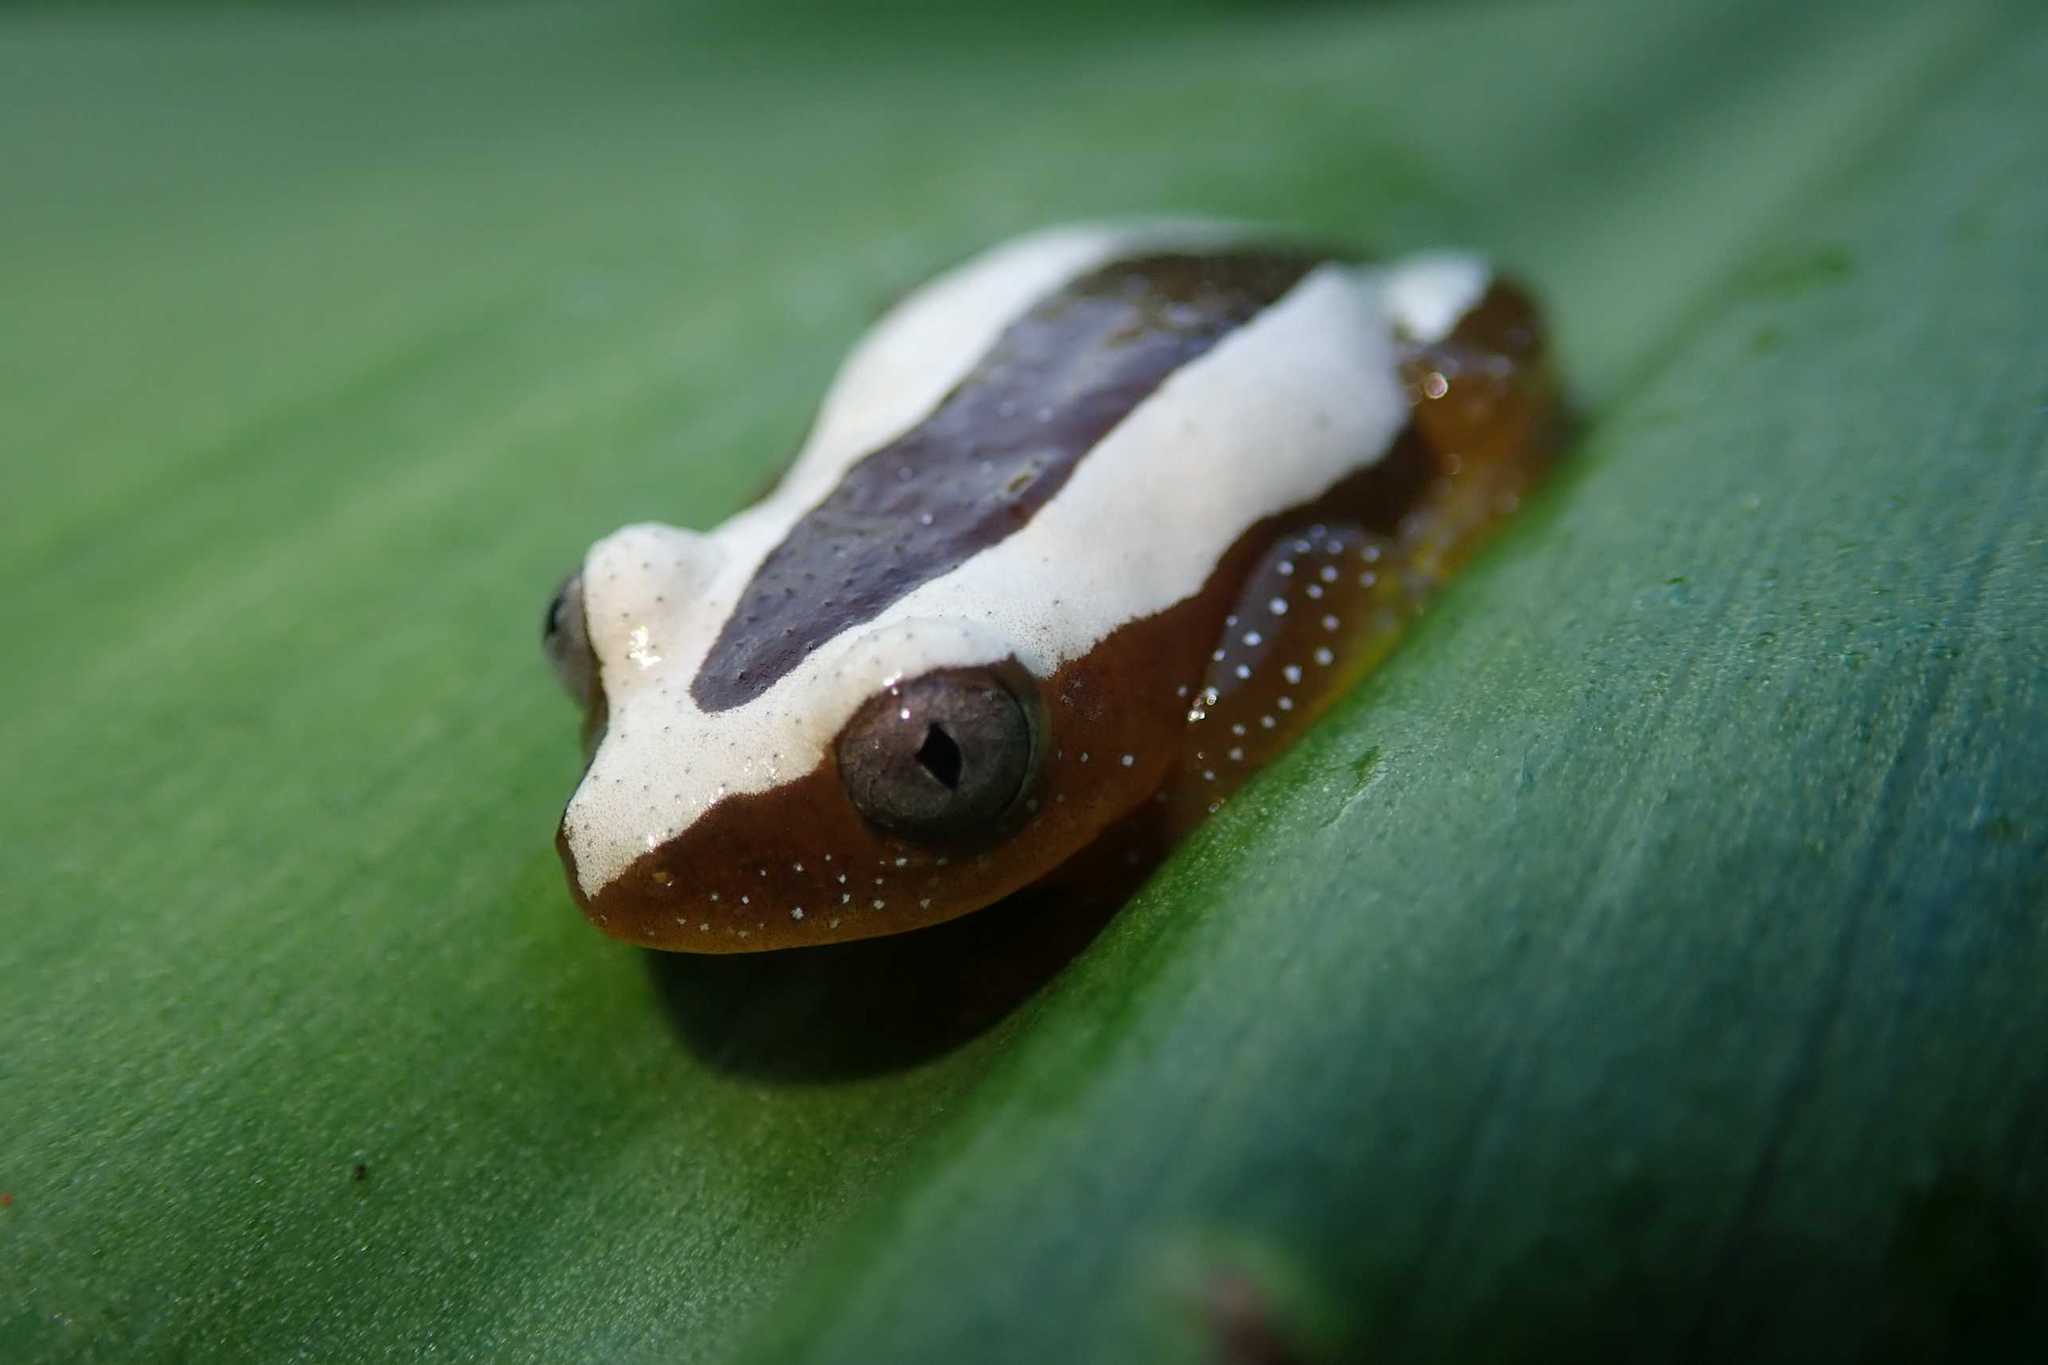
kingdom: Animalia
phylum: Chordata
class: Amphibia
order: Anura
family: Hyperoliidae
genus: Afrixalus
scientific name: Afrixalus fornasini
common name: Fornasini's spiny reed frog
